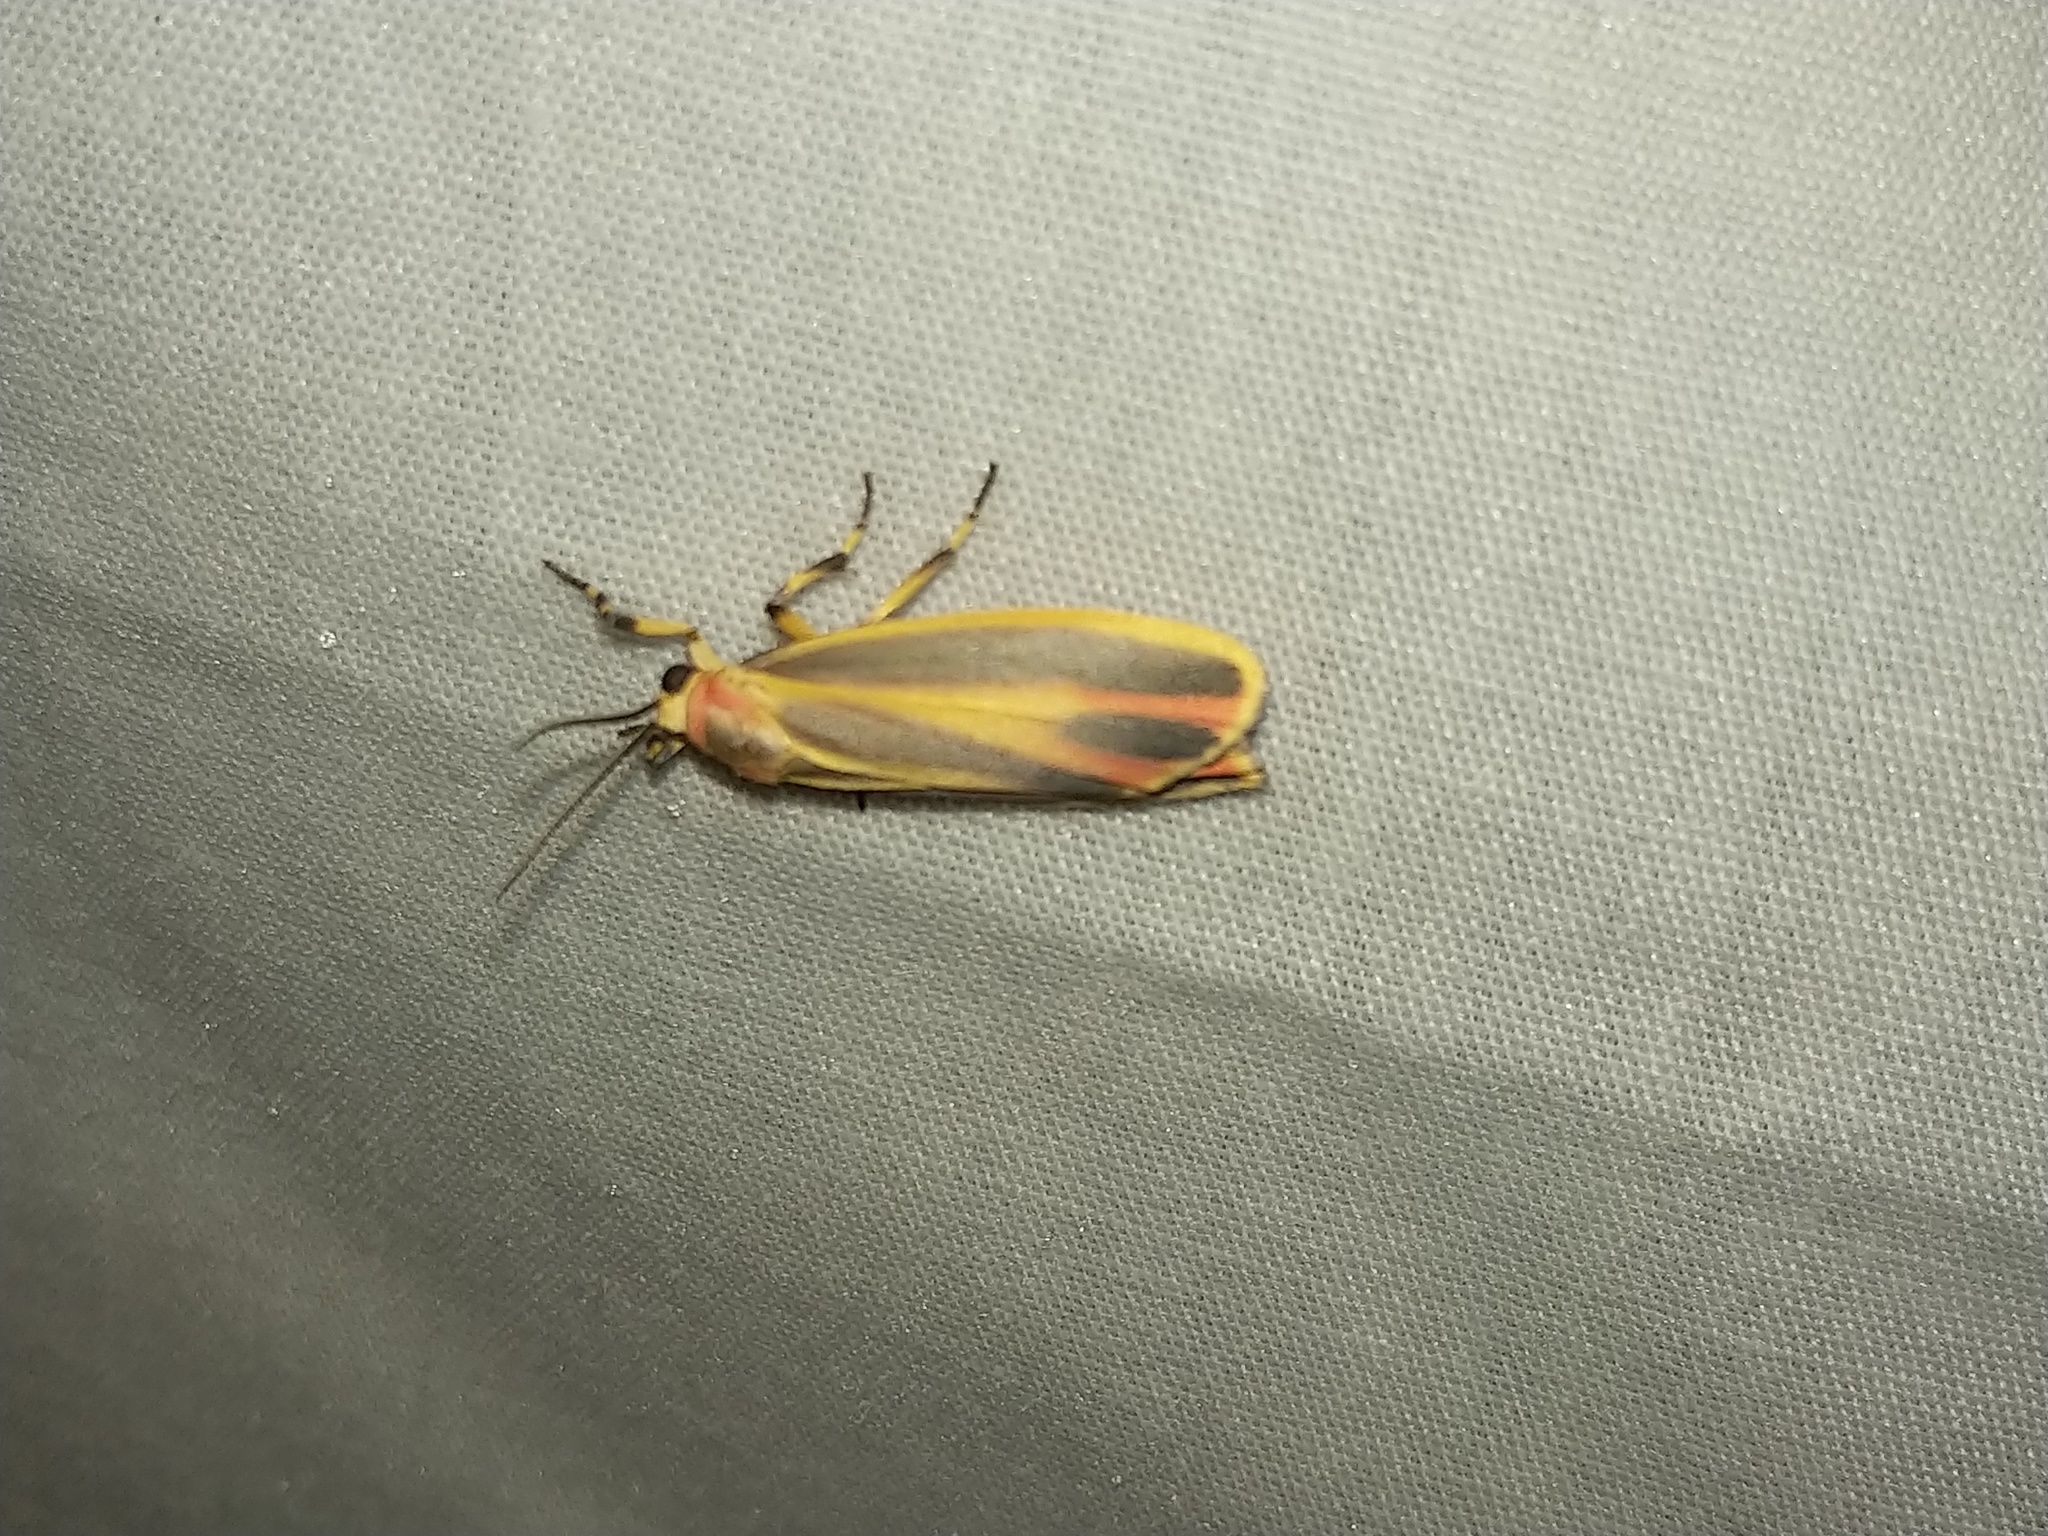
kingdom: Animalia
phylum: Arthropoda
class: Insecta
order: Lepidoptera
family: Erebidae
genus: Hypoprepia
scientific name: Hypoprepia fucosa
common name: Painted lichen moth
